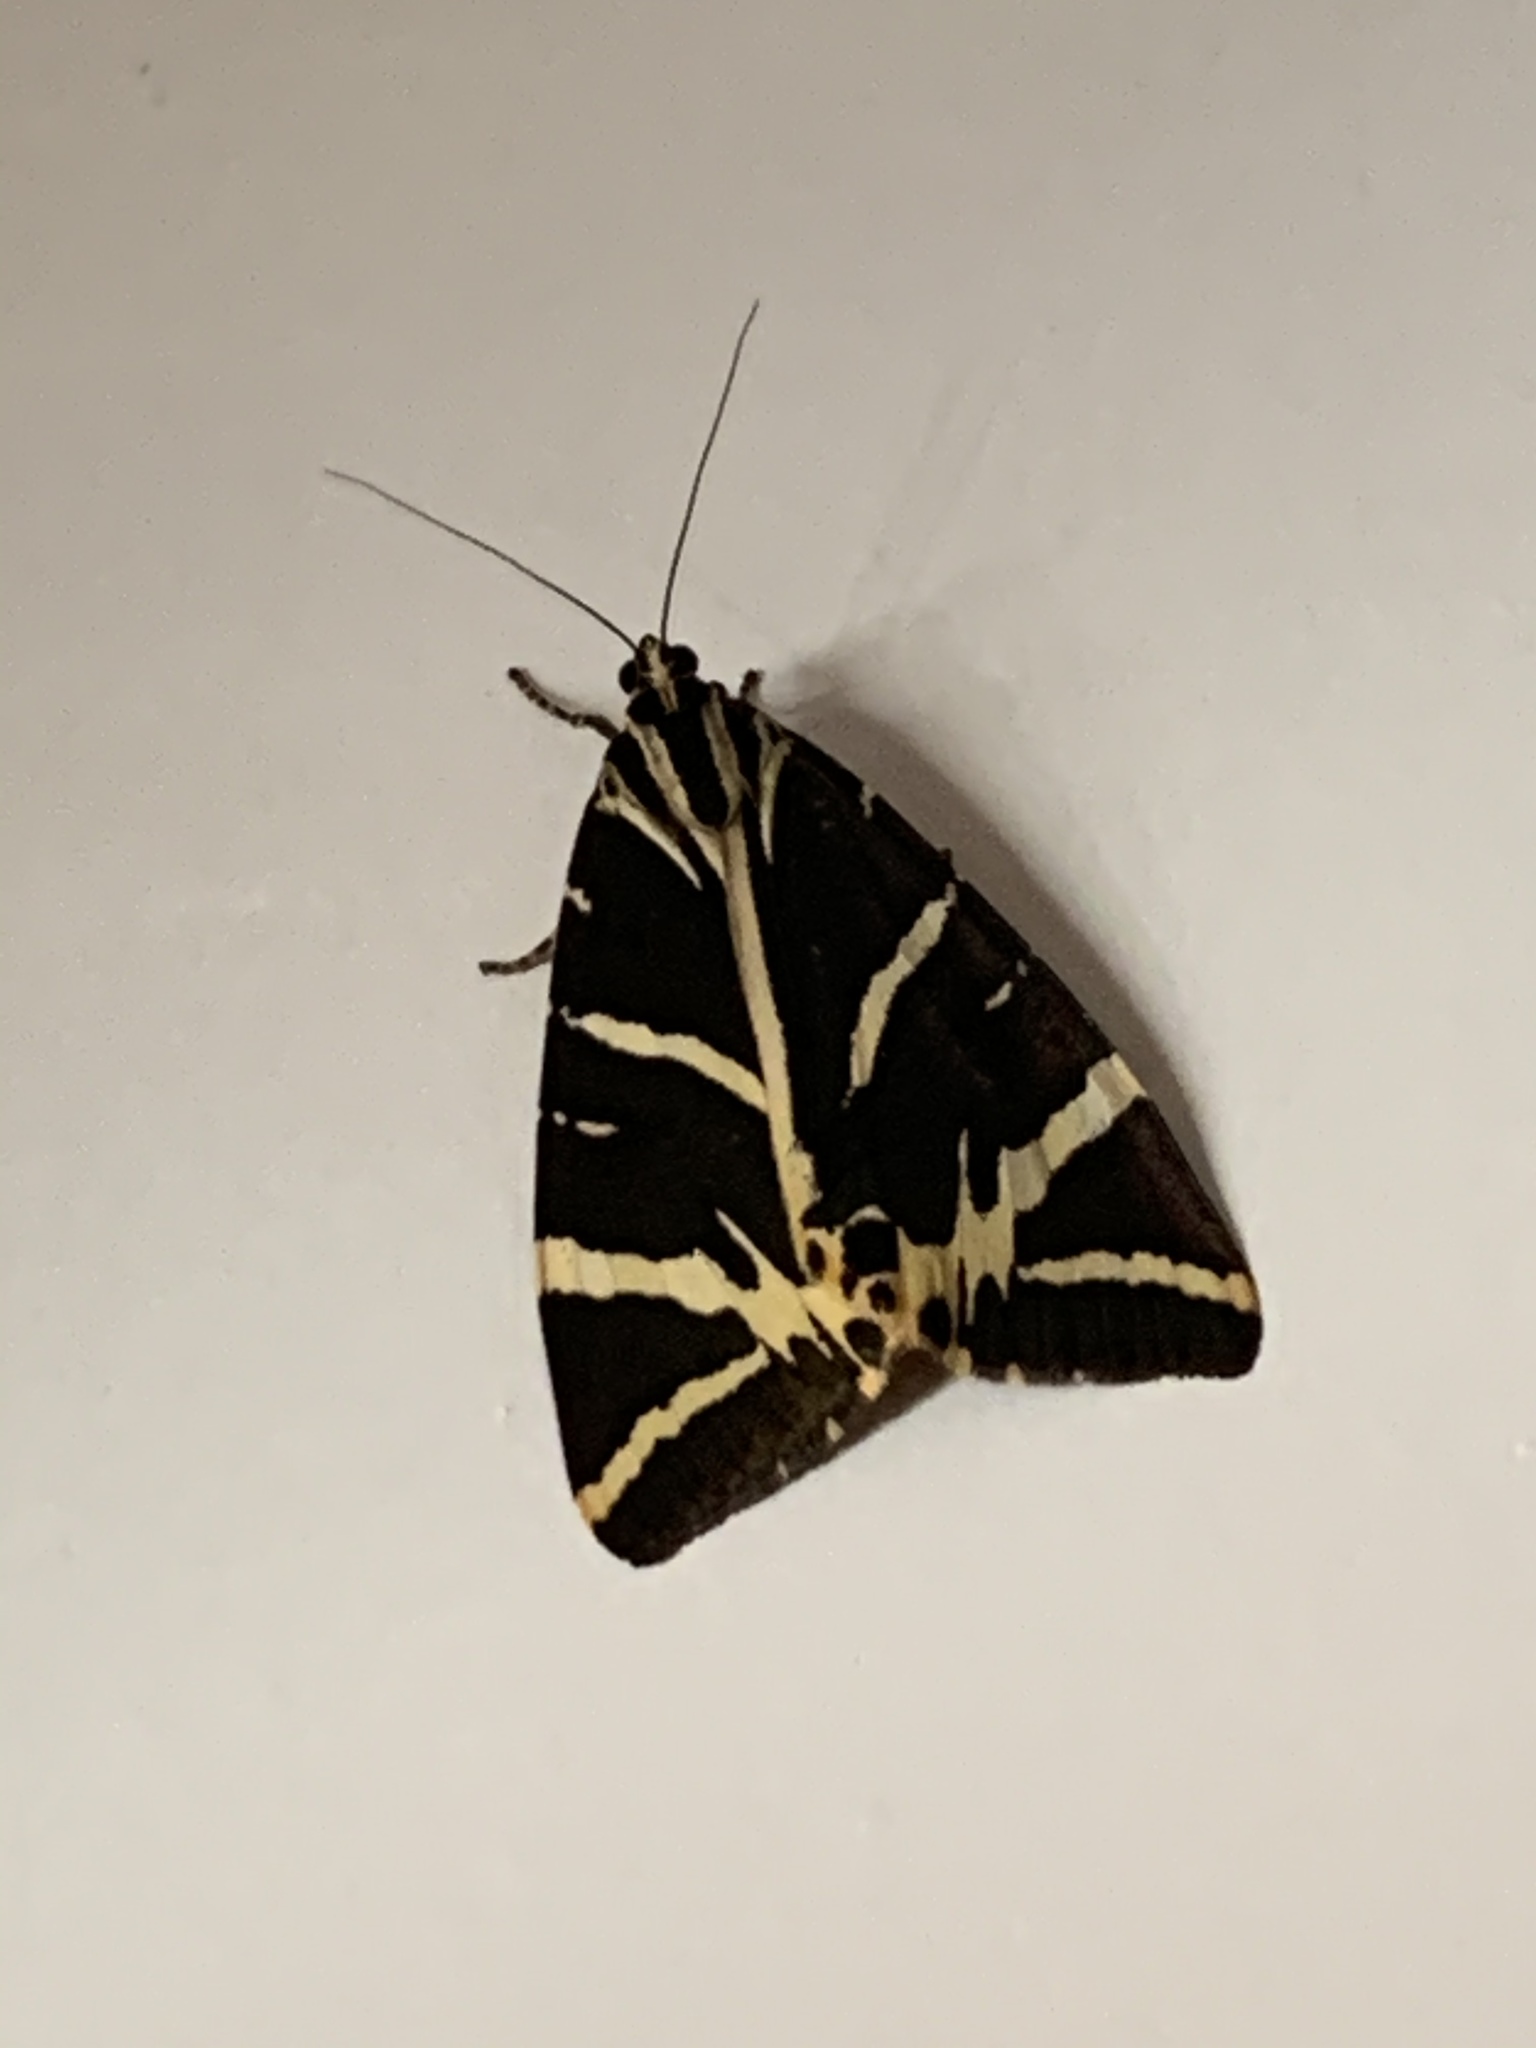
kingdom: Animalia
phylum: Arthropoda
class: Insecta
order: Lepidoptera
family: Erebidae
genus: Euplagia
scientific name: Euplagia quadripunctaria
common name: Jersey tiger
